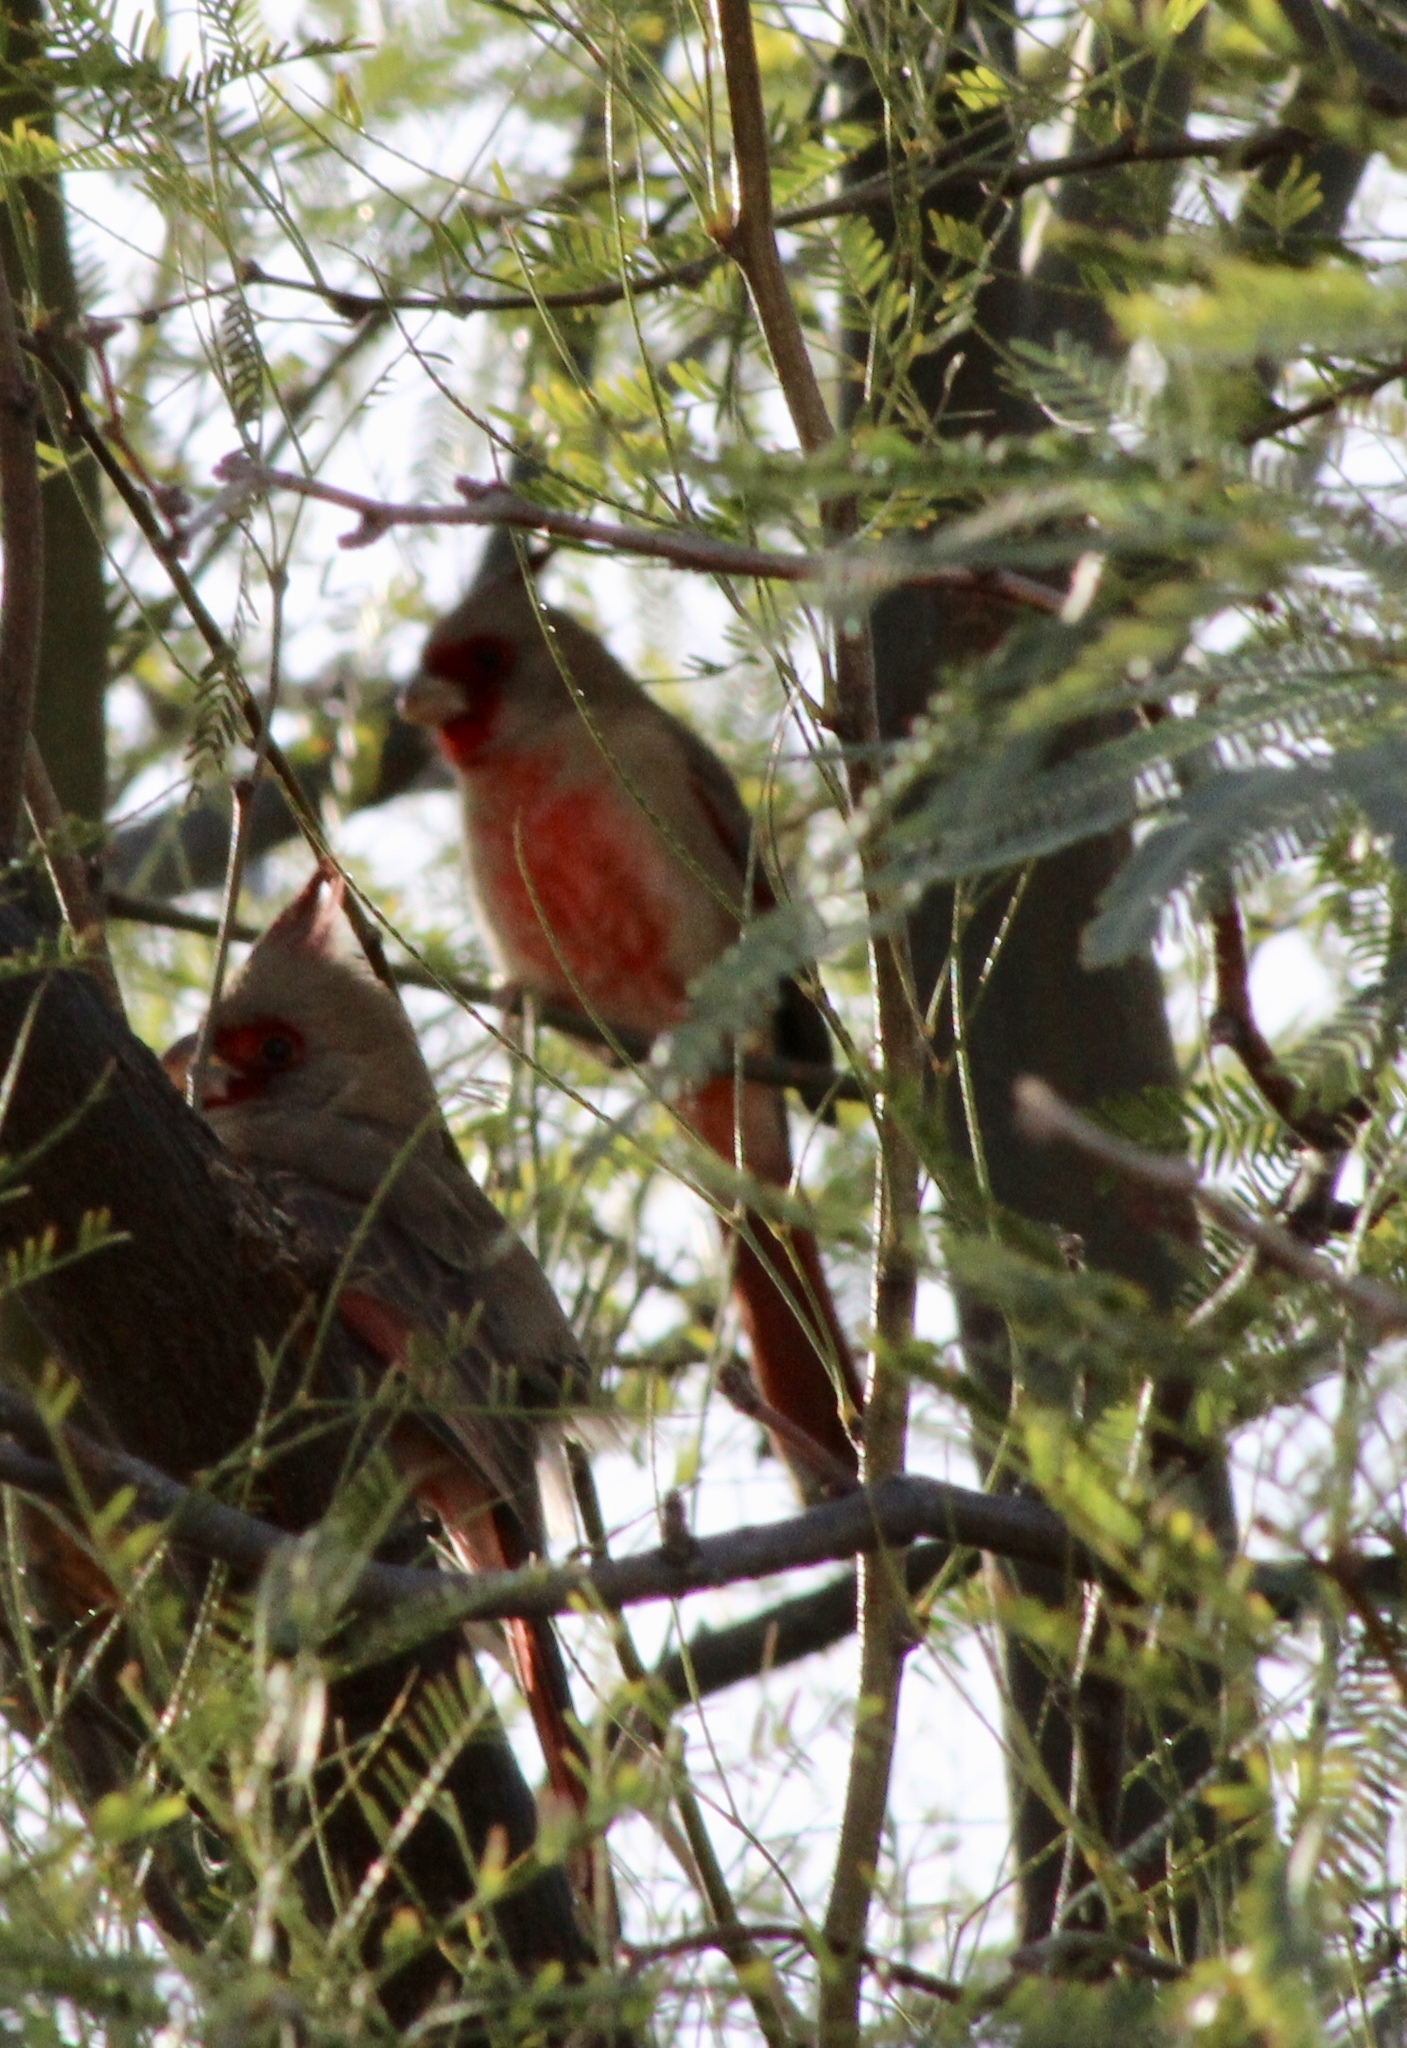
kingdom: Animalia
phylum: Chordata
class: Aves
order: Passeriformes
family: Cardinalidae
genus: Cardinalis
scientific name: Cardinalis sinuatus
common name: Pyrrhuloxia
